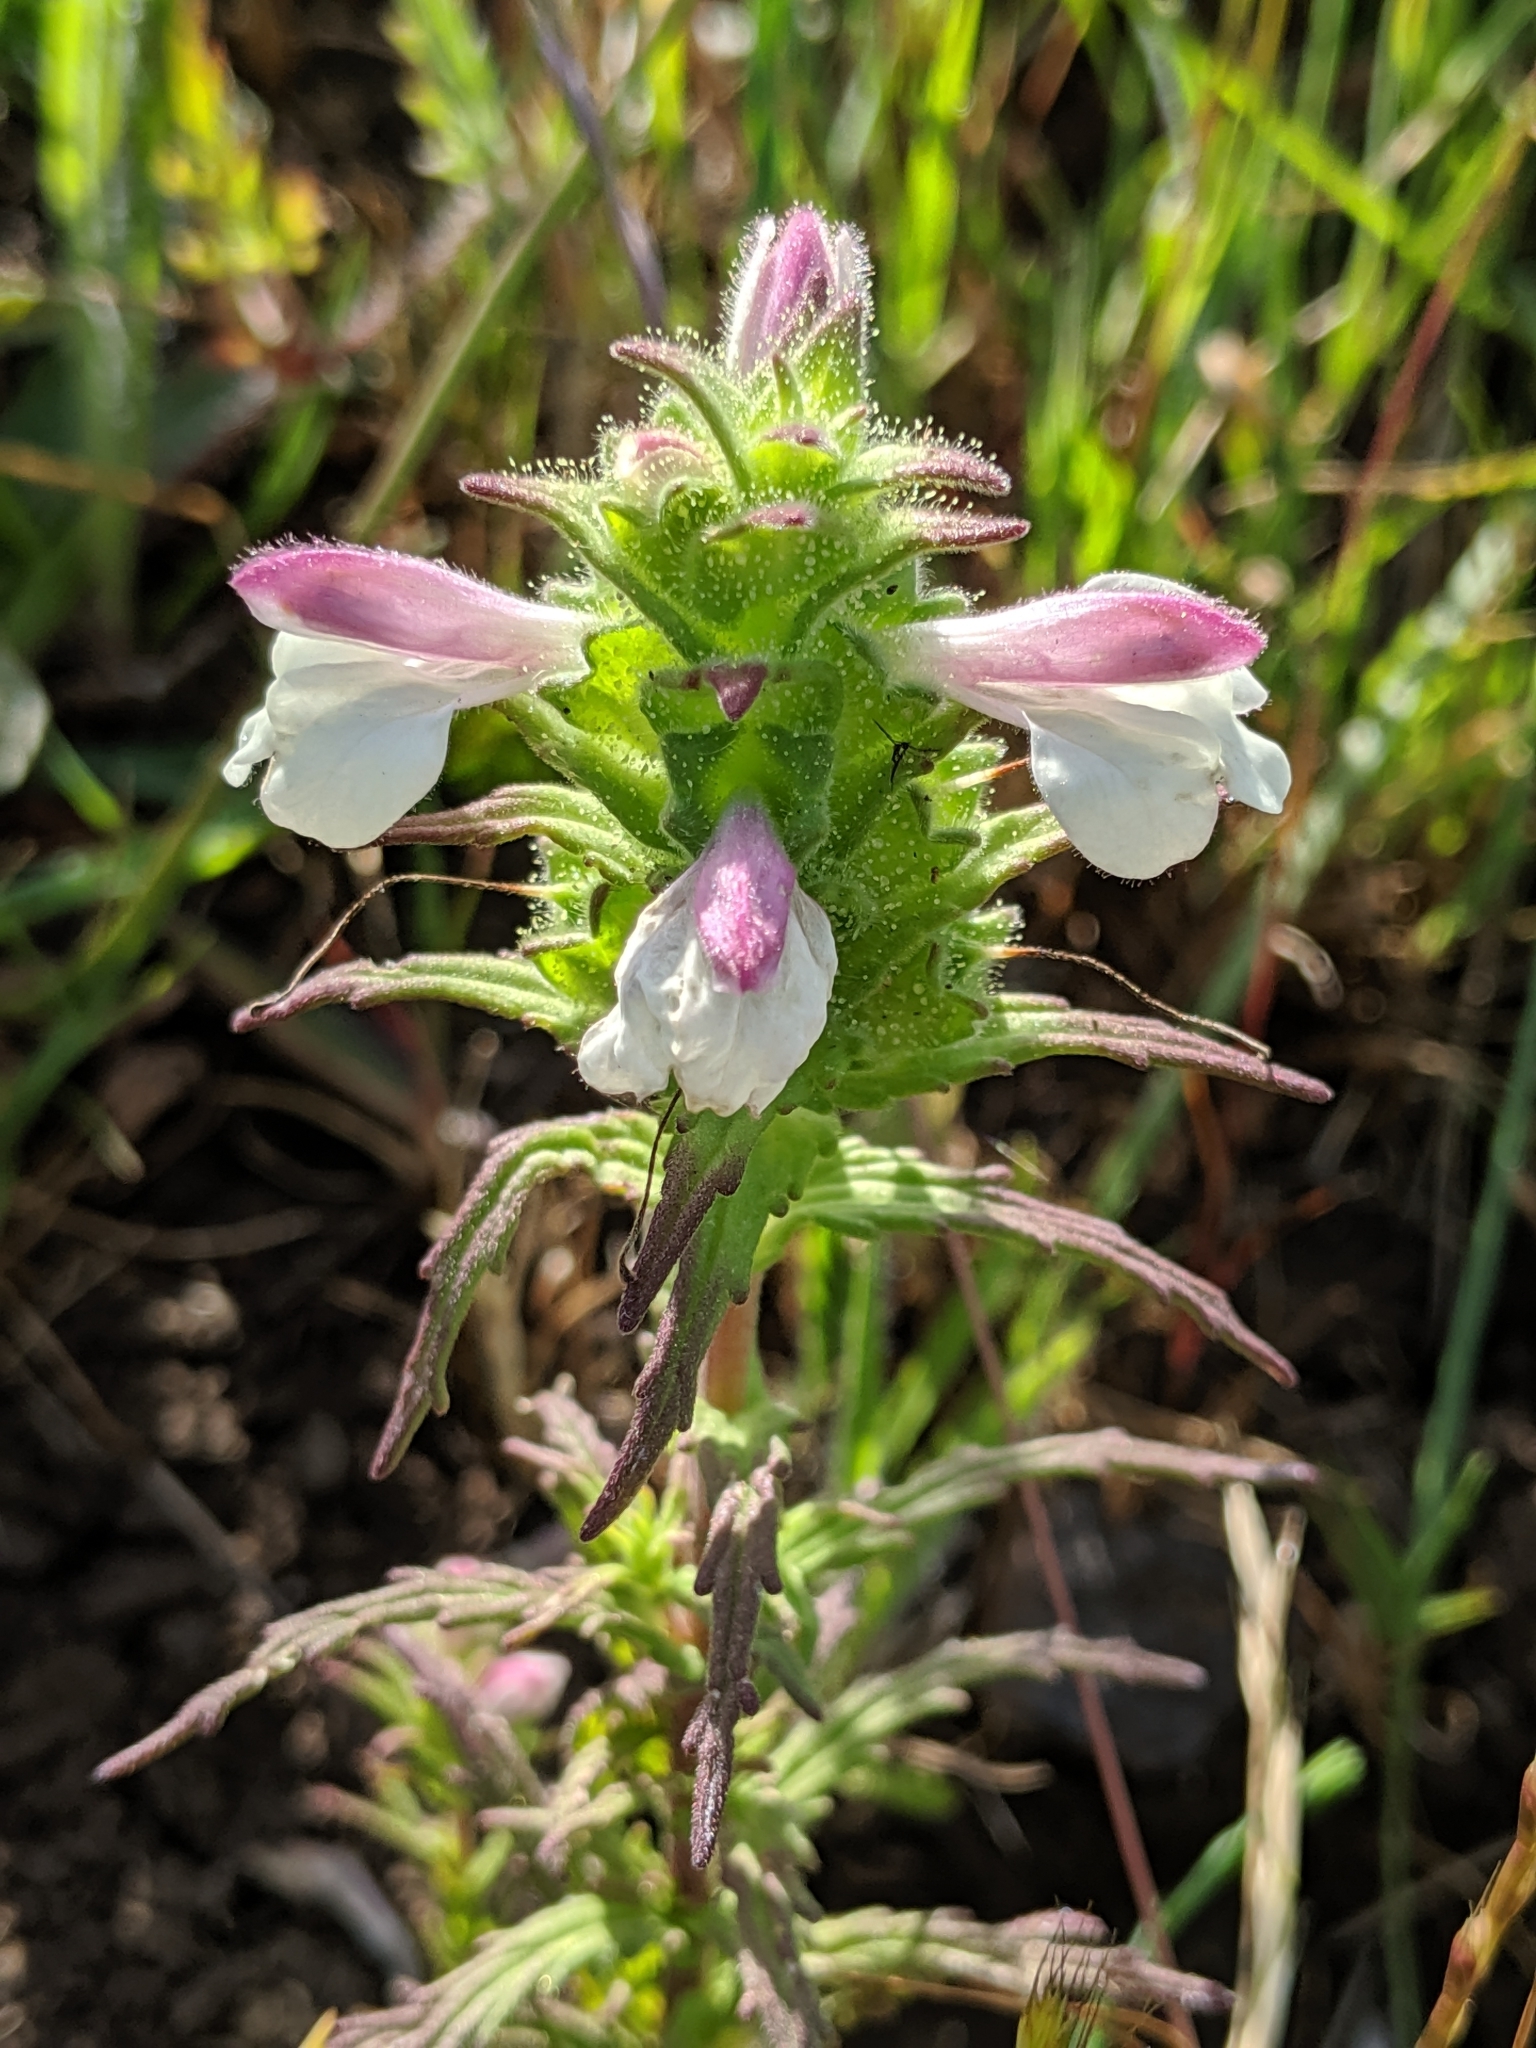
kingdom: Plantae
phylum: Tracheophyta
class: Magnoliopsida
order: Lamiales
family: Orobanchaceae
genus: Bellardia
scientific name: Bellardia trixago
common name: Mediterranean lineseed
